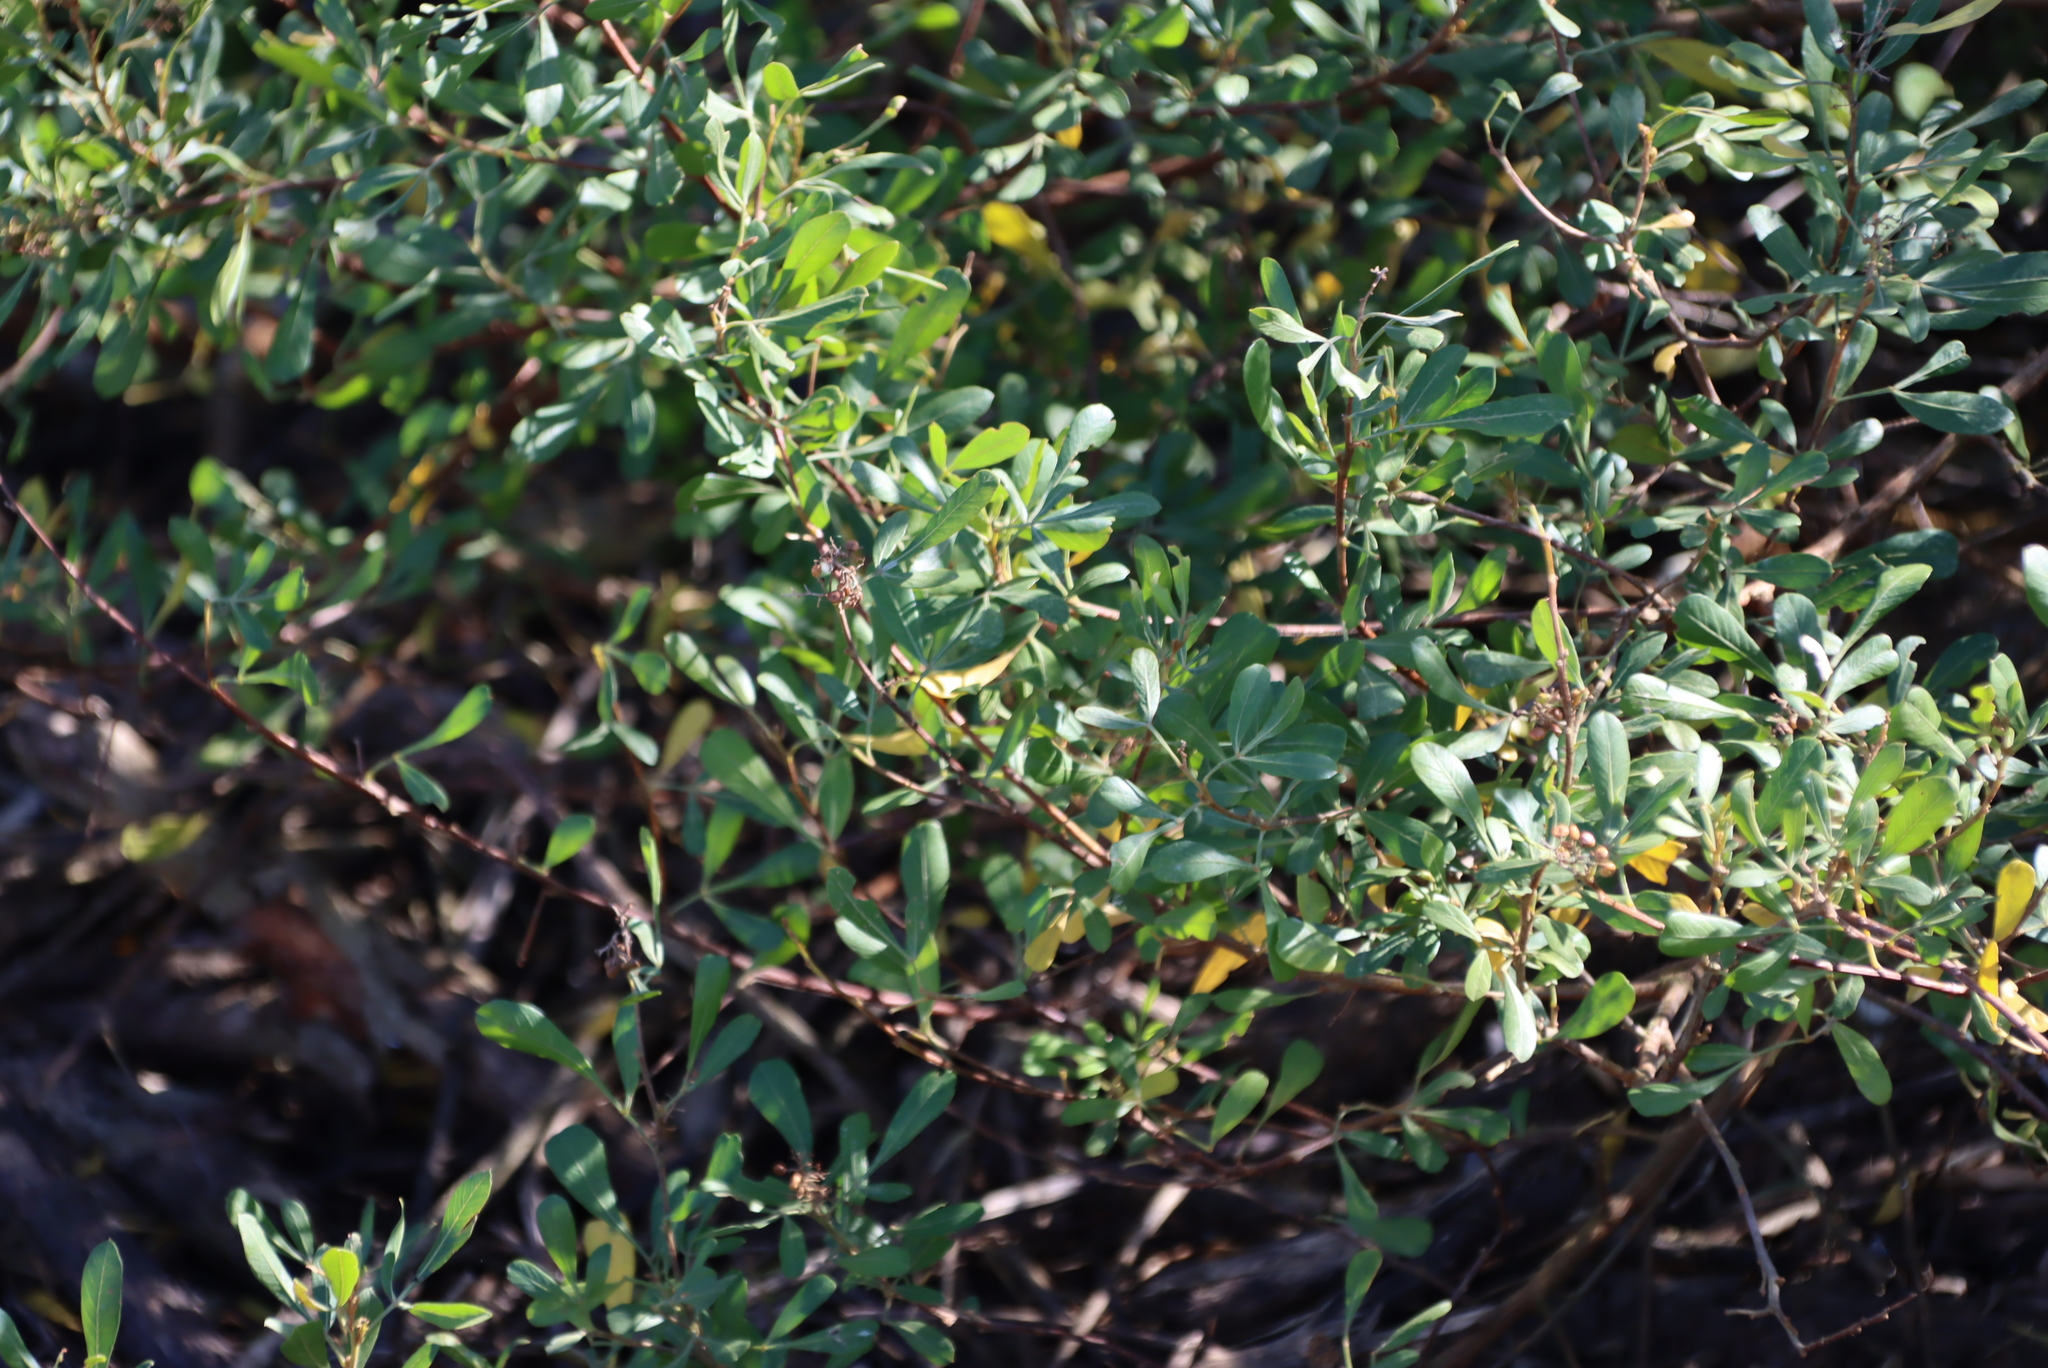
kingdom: Plantae
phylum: Tracheophyta
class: Magnoliopsida
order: Sapindales
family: Anacardiaceae
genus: Searsia
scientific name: Searsia pallens
